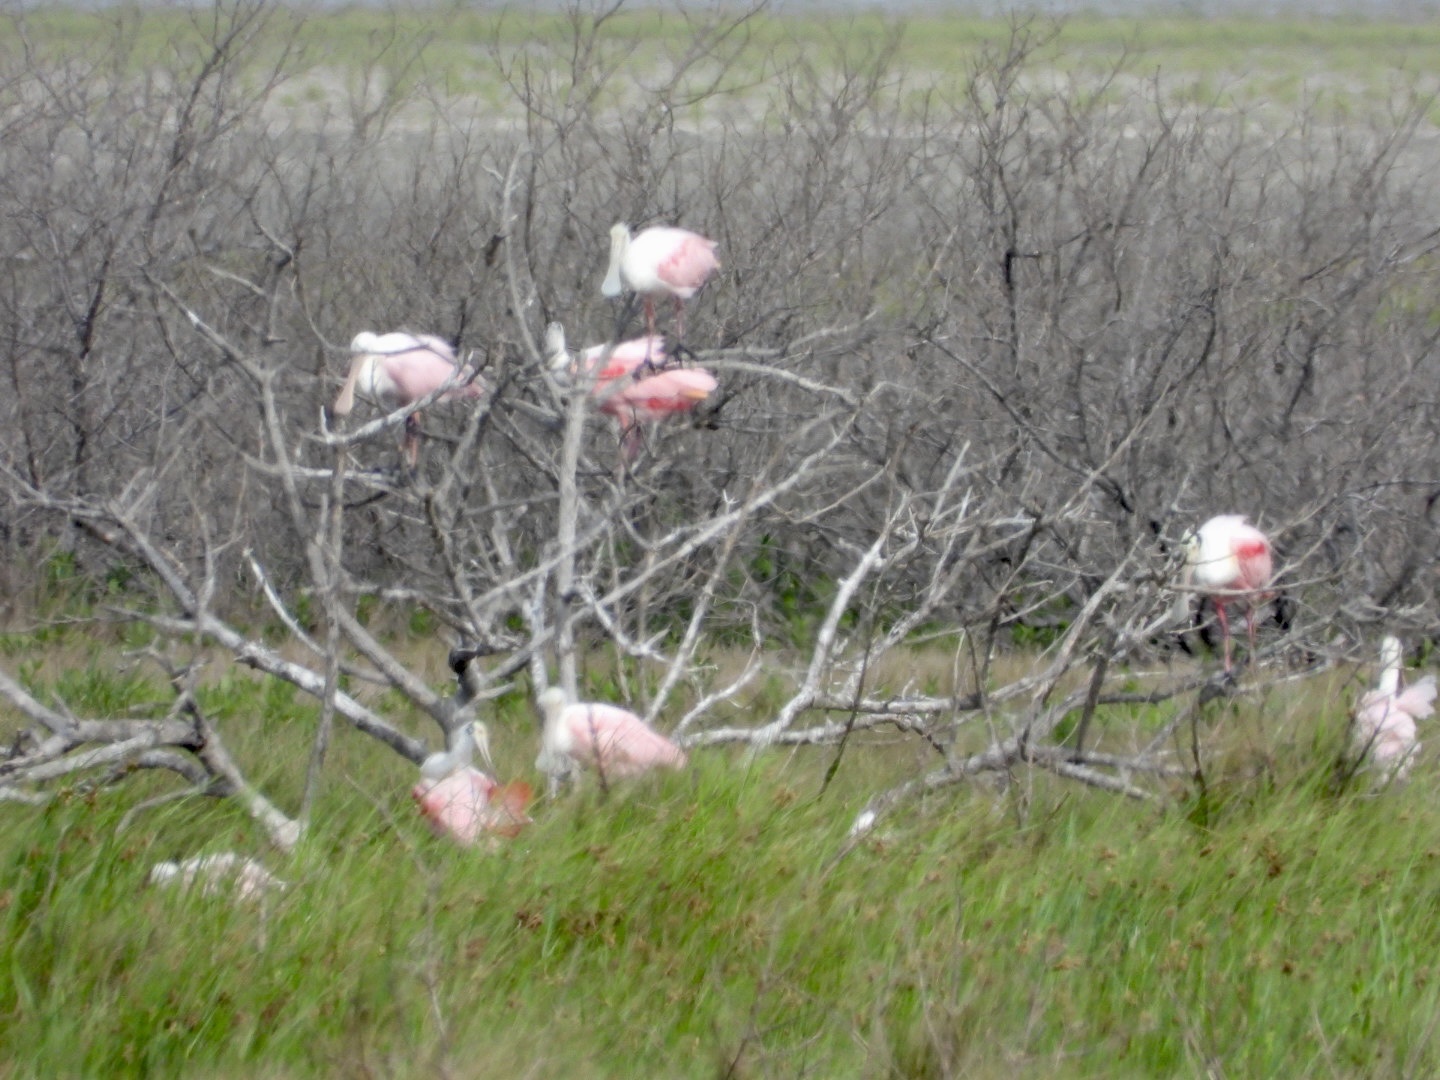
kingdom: Animalia
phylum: Chordata
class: Aves
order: Pelecaniformes
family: Threskiornithidae
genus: Platalea
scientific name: Platalea ajaja
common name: Roseate spoonbill
